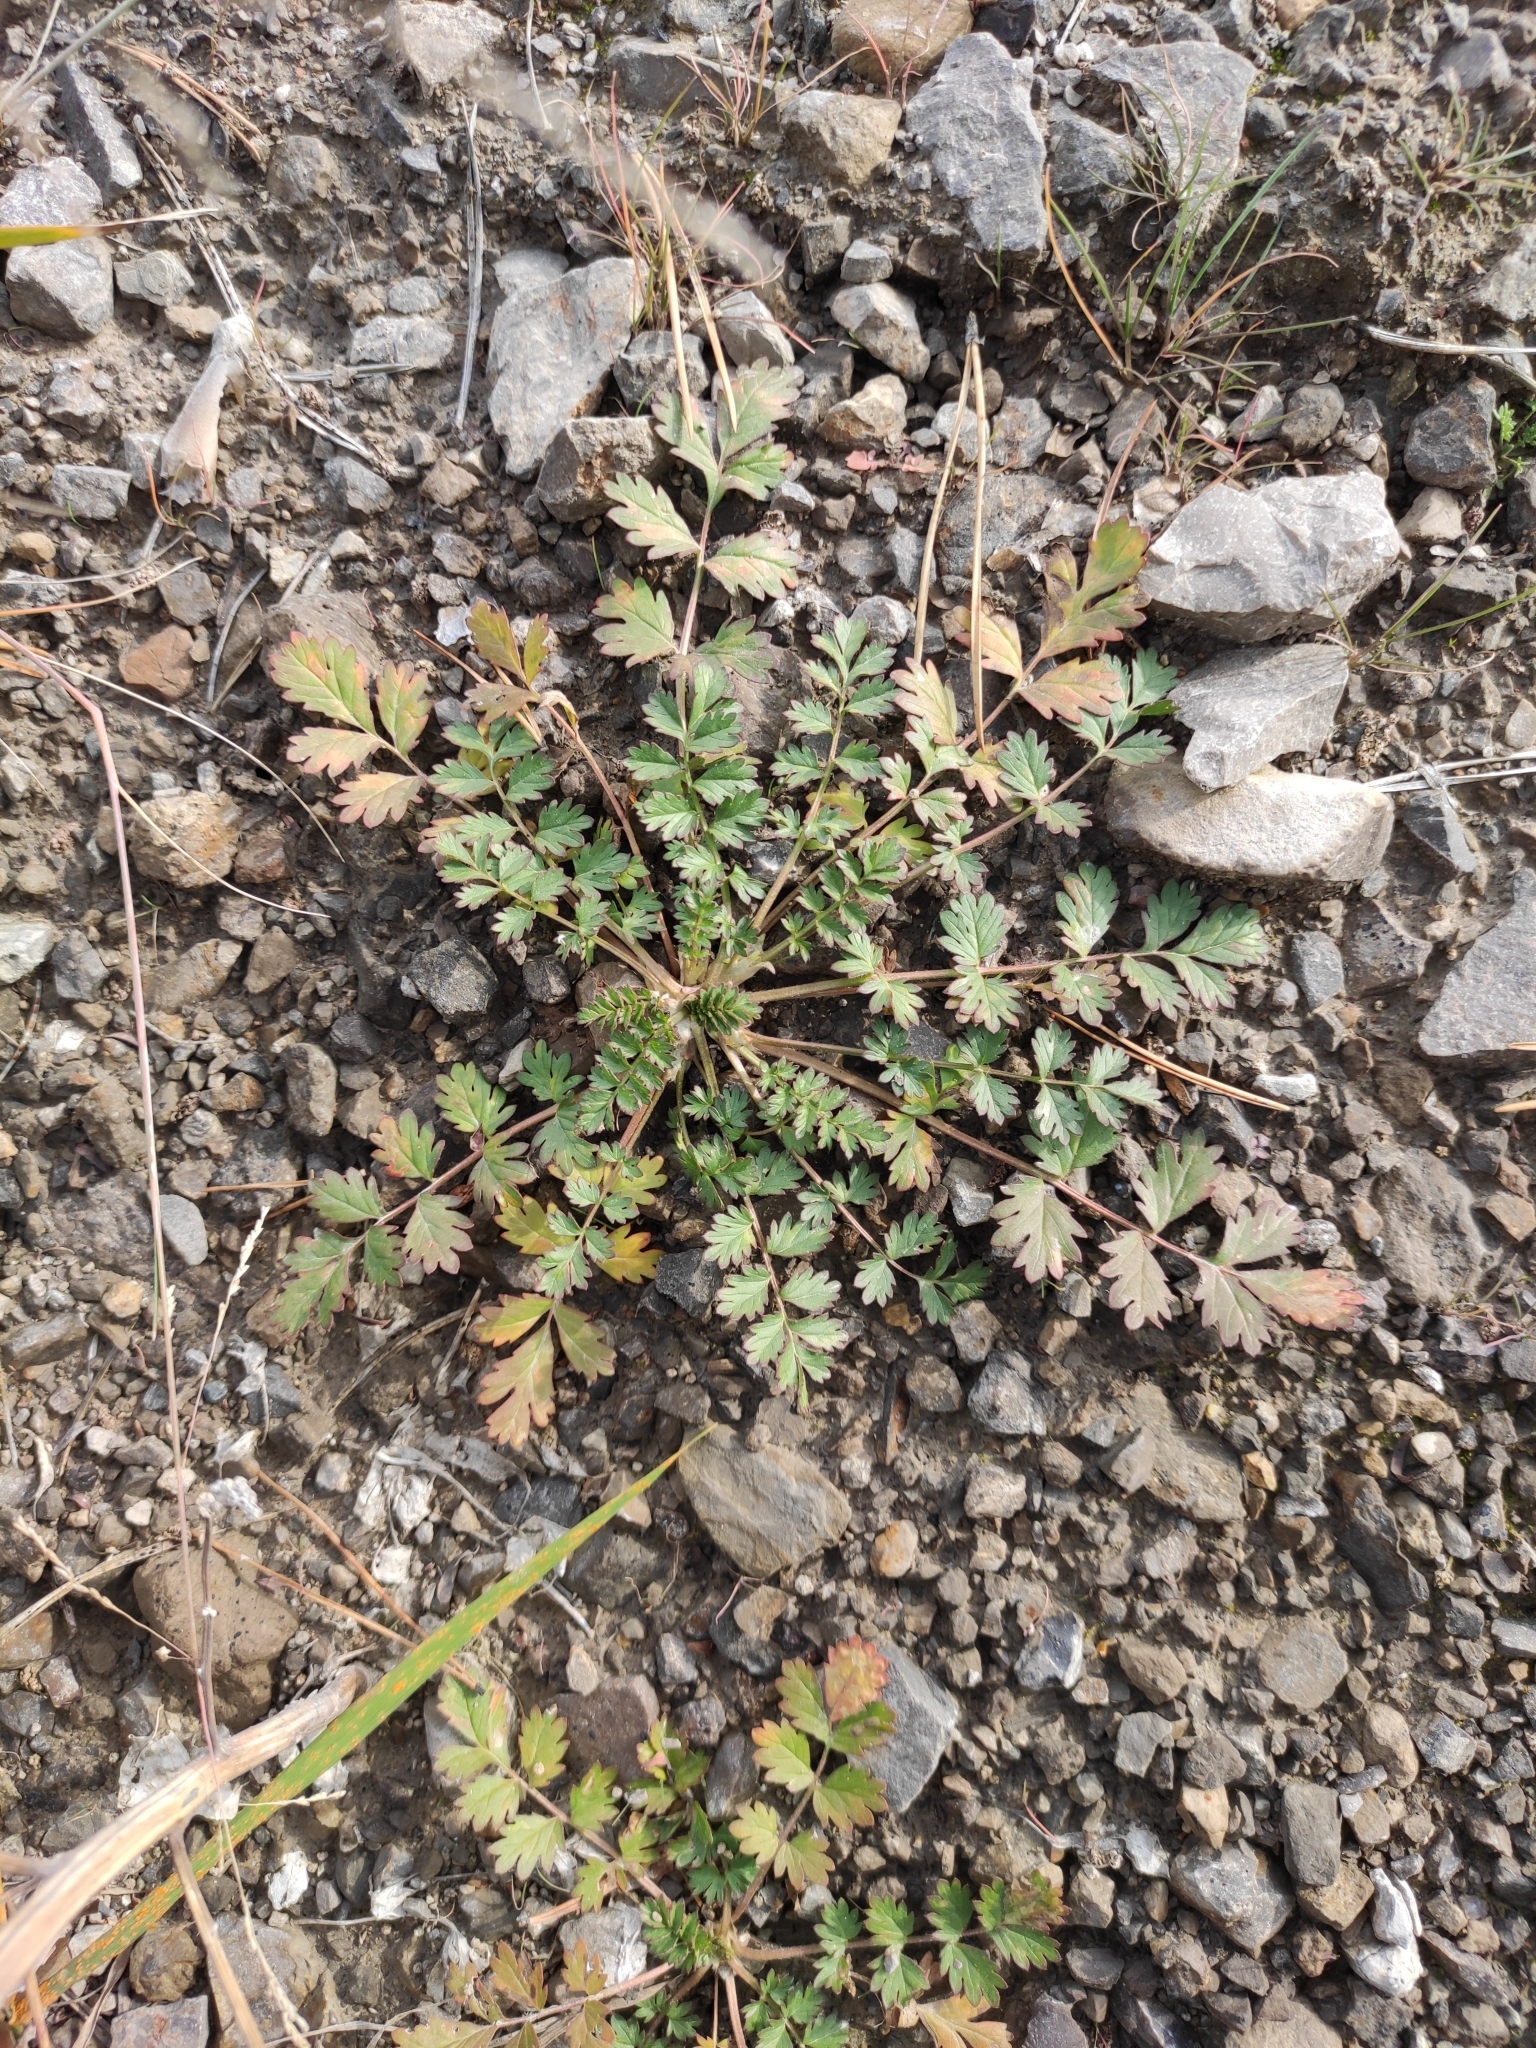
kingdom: Plantae
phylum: Tracheophyta
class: Magnoliopsida
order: Rosales
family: Rosaceae
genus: Potentilla
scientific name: Potentilla supina
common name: Prostrate cinquefoil
